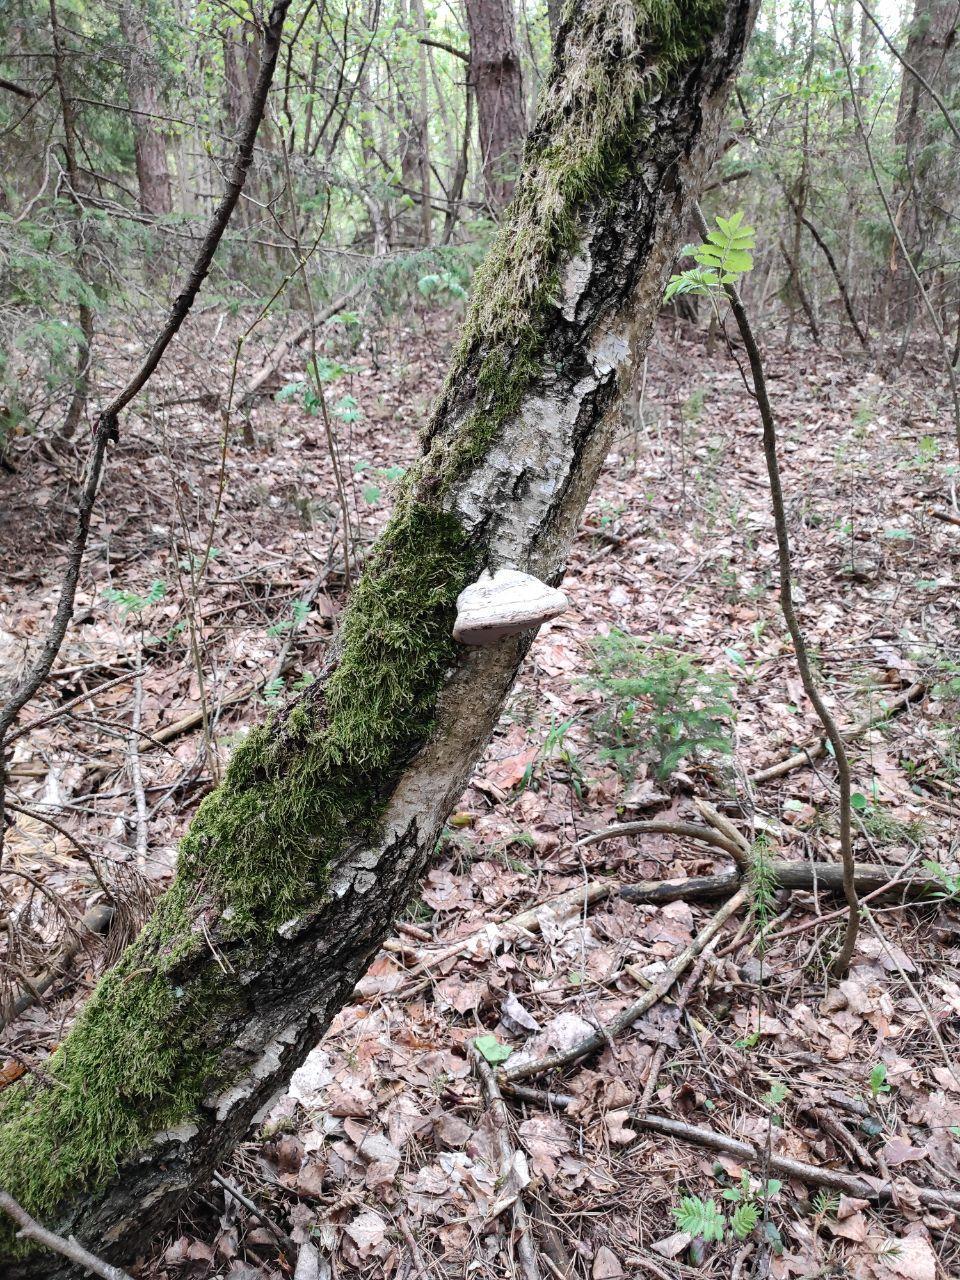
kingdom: Fungi
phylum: Basidiomycota
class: Agaricomycetes
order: Polyporales
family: Polyporaceae
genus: Fomes
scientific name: Fomes fomentarius
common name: Hoof fungus
